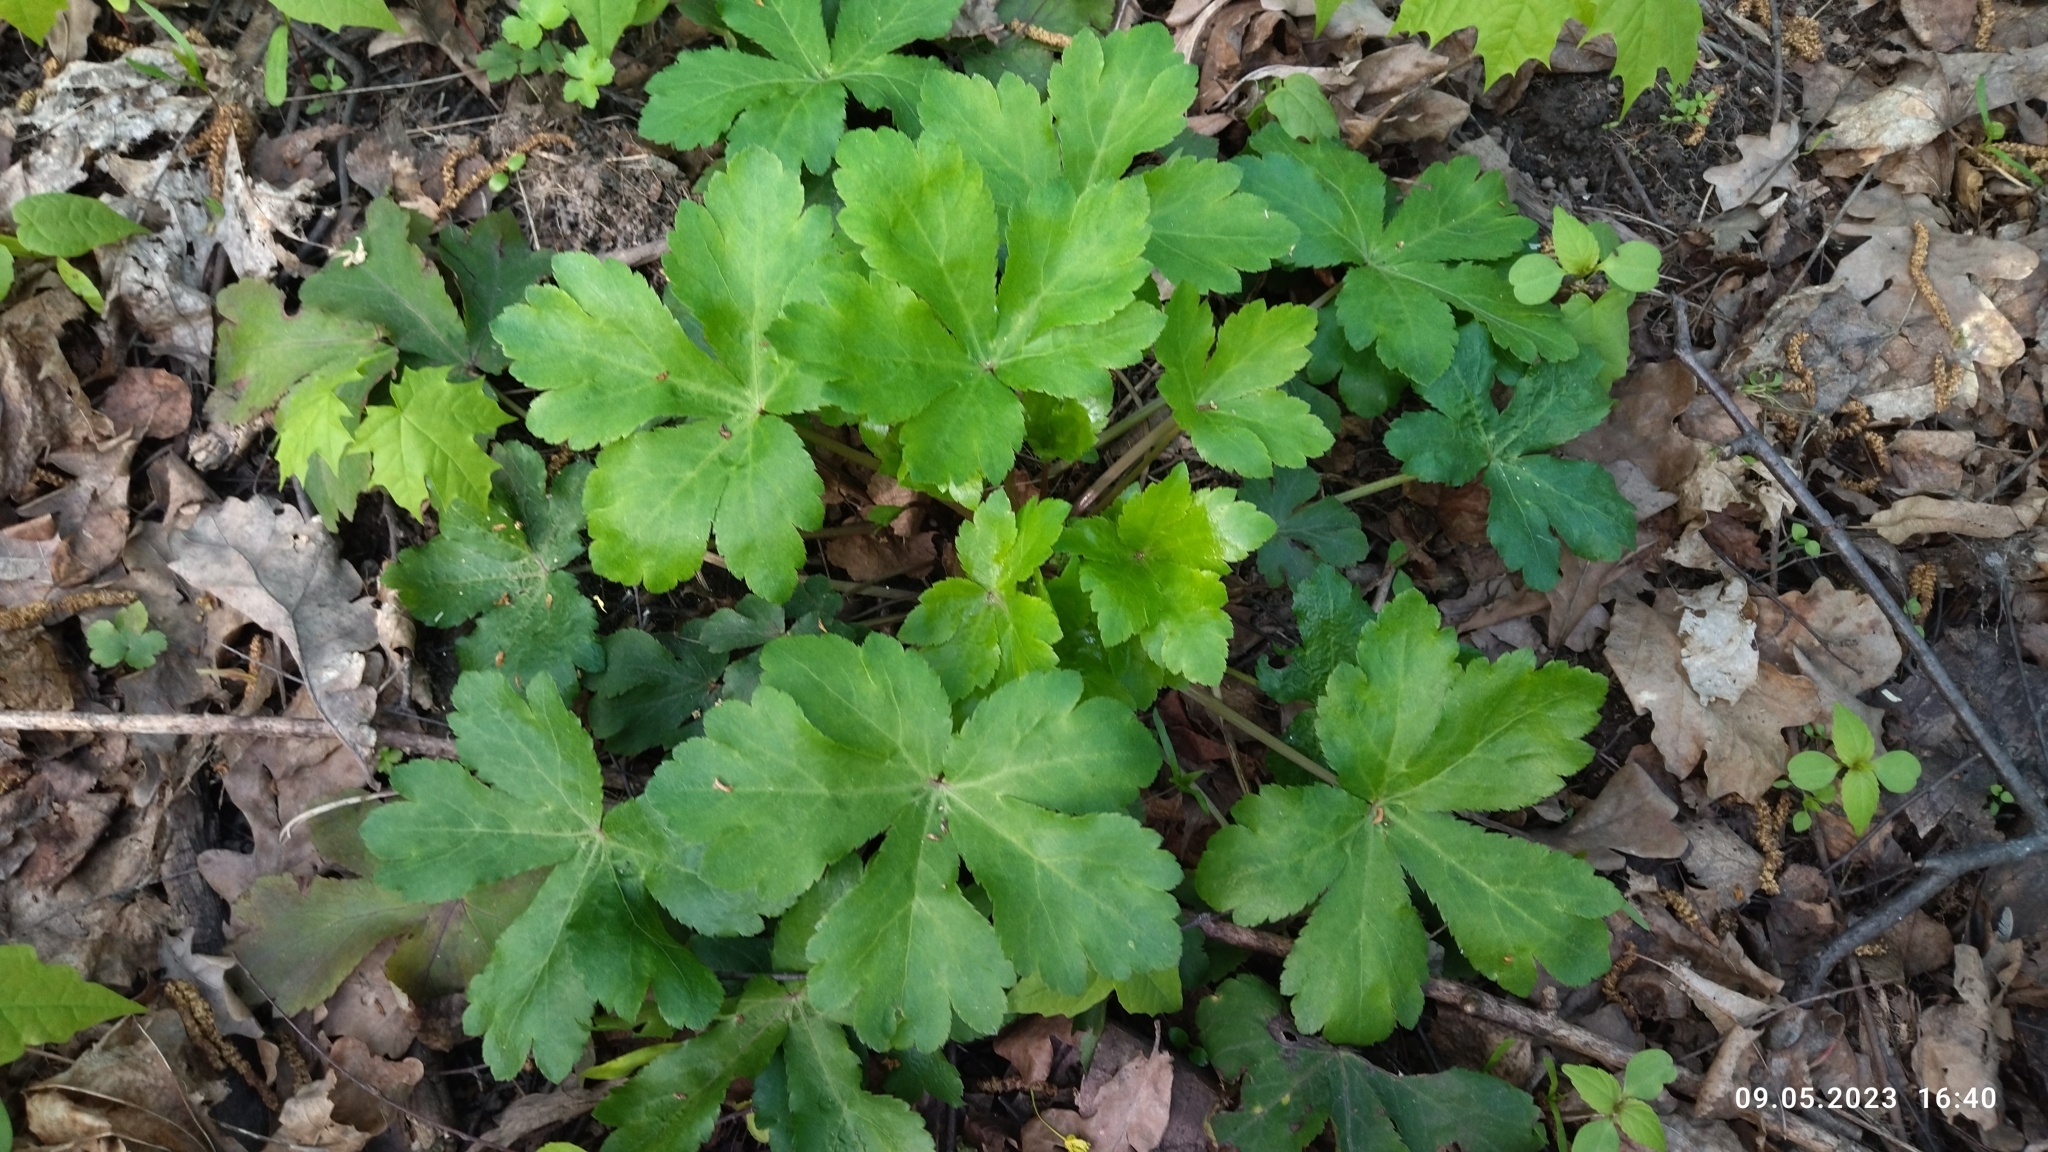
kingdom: Plantae
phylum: Tracheophyta
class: Magnoliopsida
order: Apiales
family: Apiaceae
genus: Sanicula
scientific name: Sanicula europaea
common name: Sanicle
